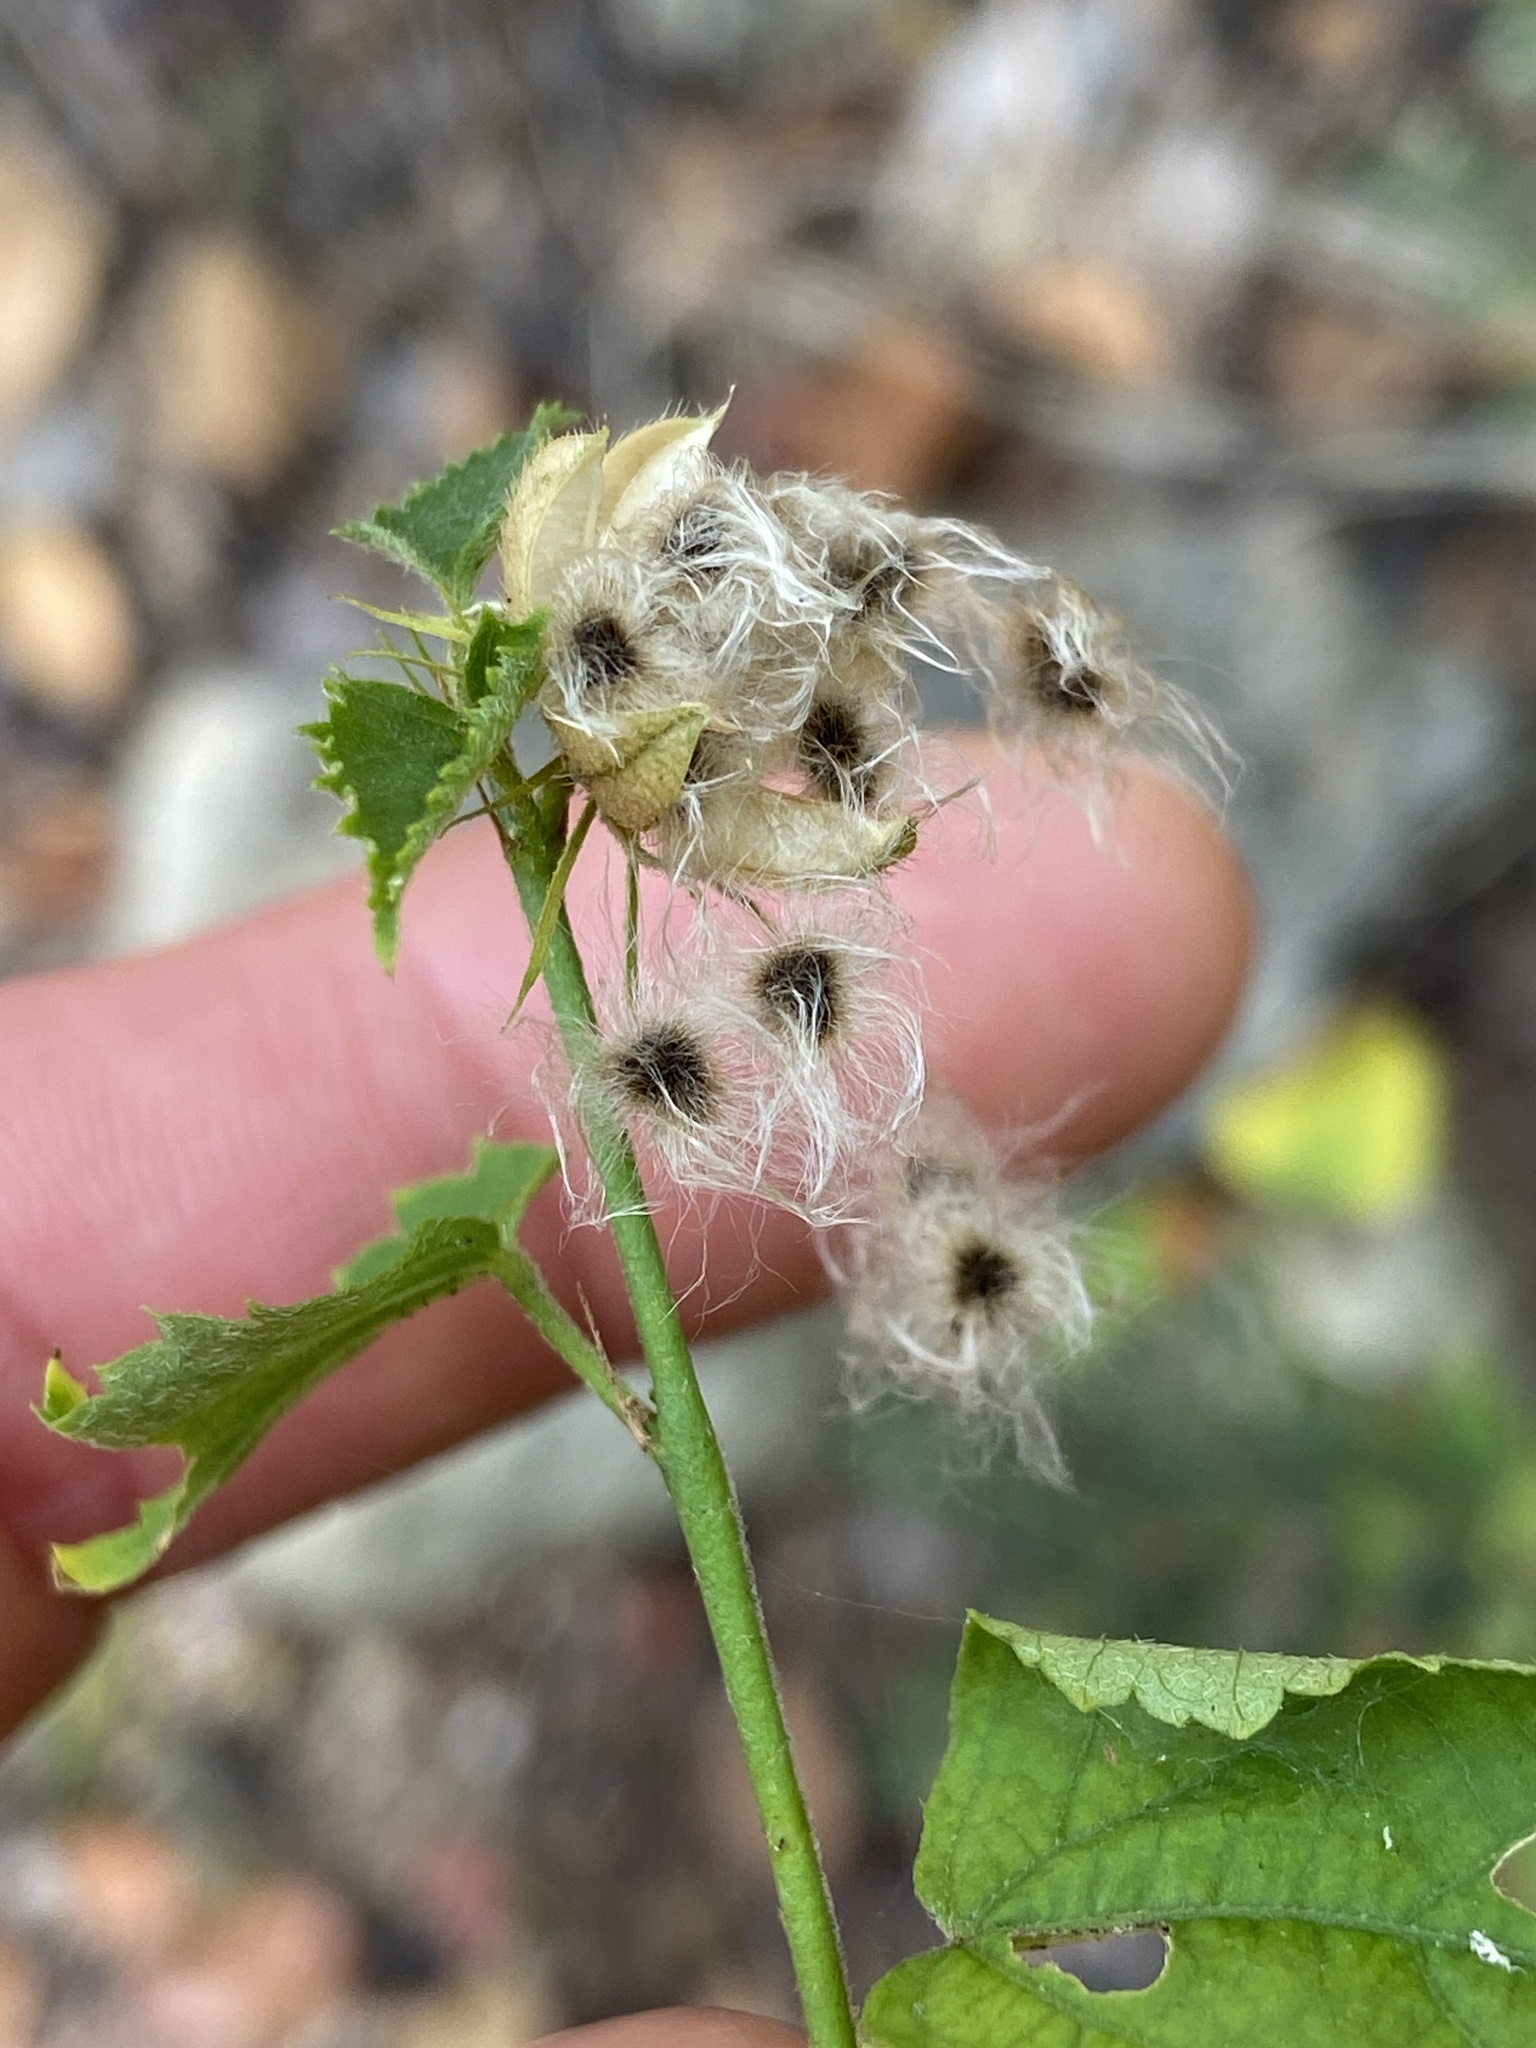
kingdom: Plantae
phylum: Tracheophyta
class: Magnoliopsida
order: Malvales
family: Malvaceae
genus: Hibiscus
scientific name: Hibiscus phoeniceus
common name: Brazilian rosemallow
